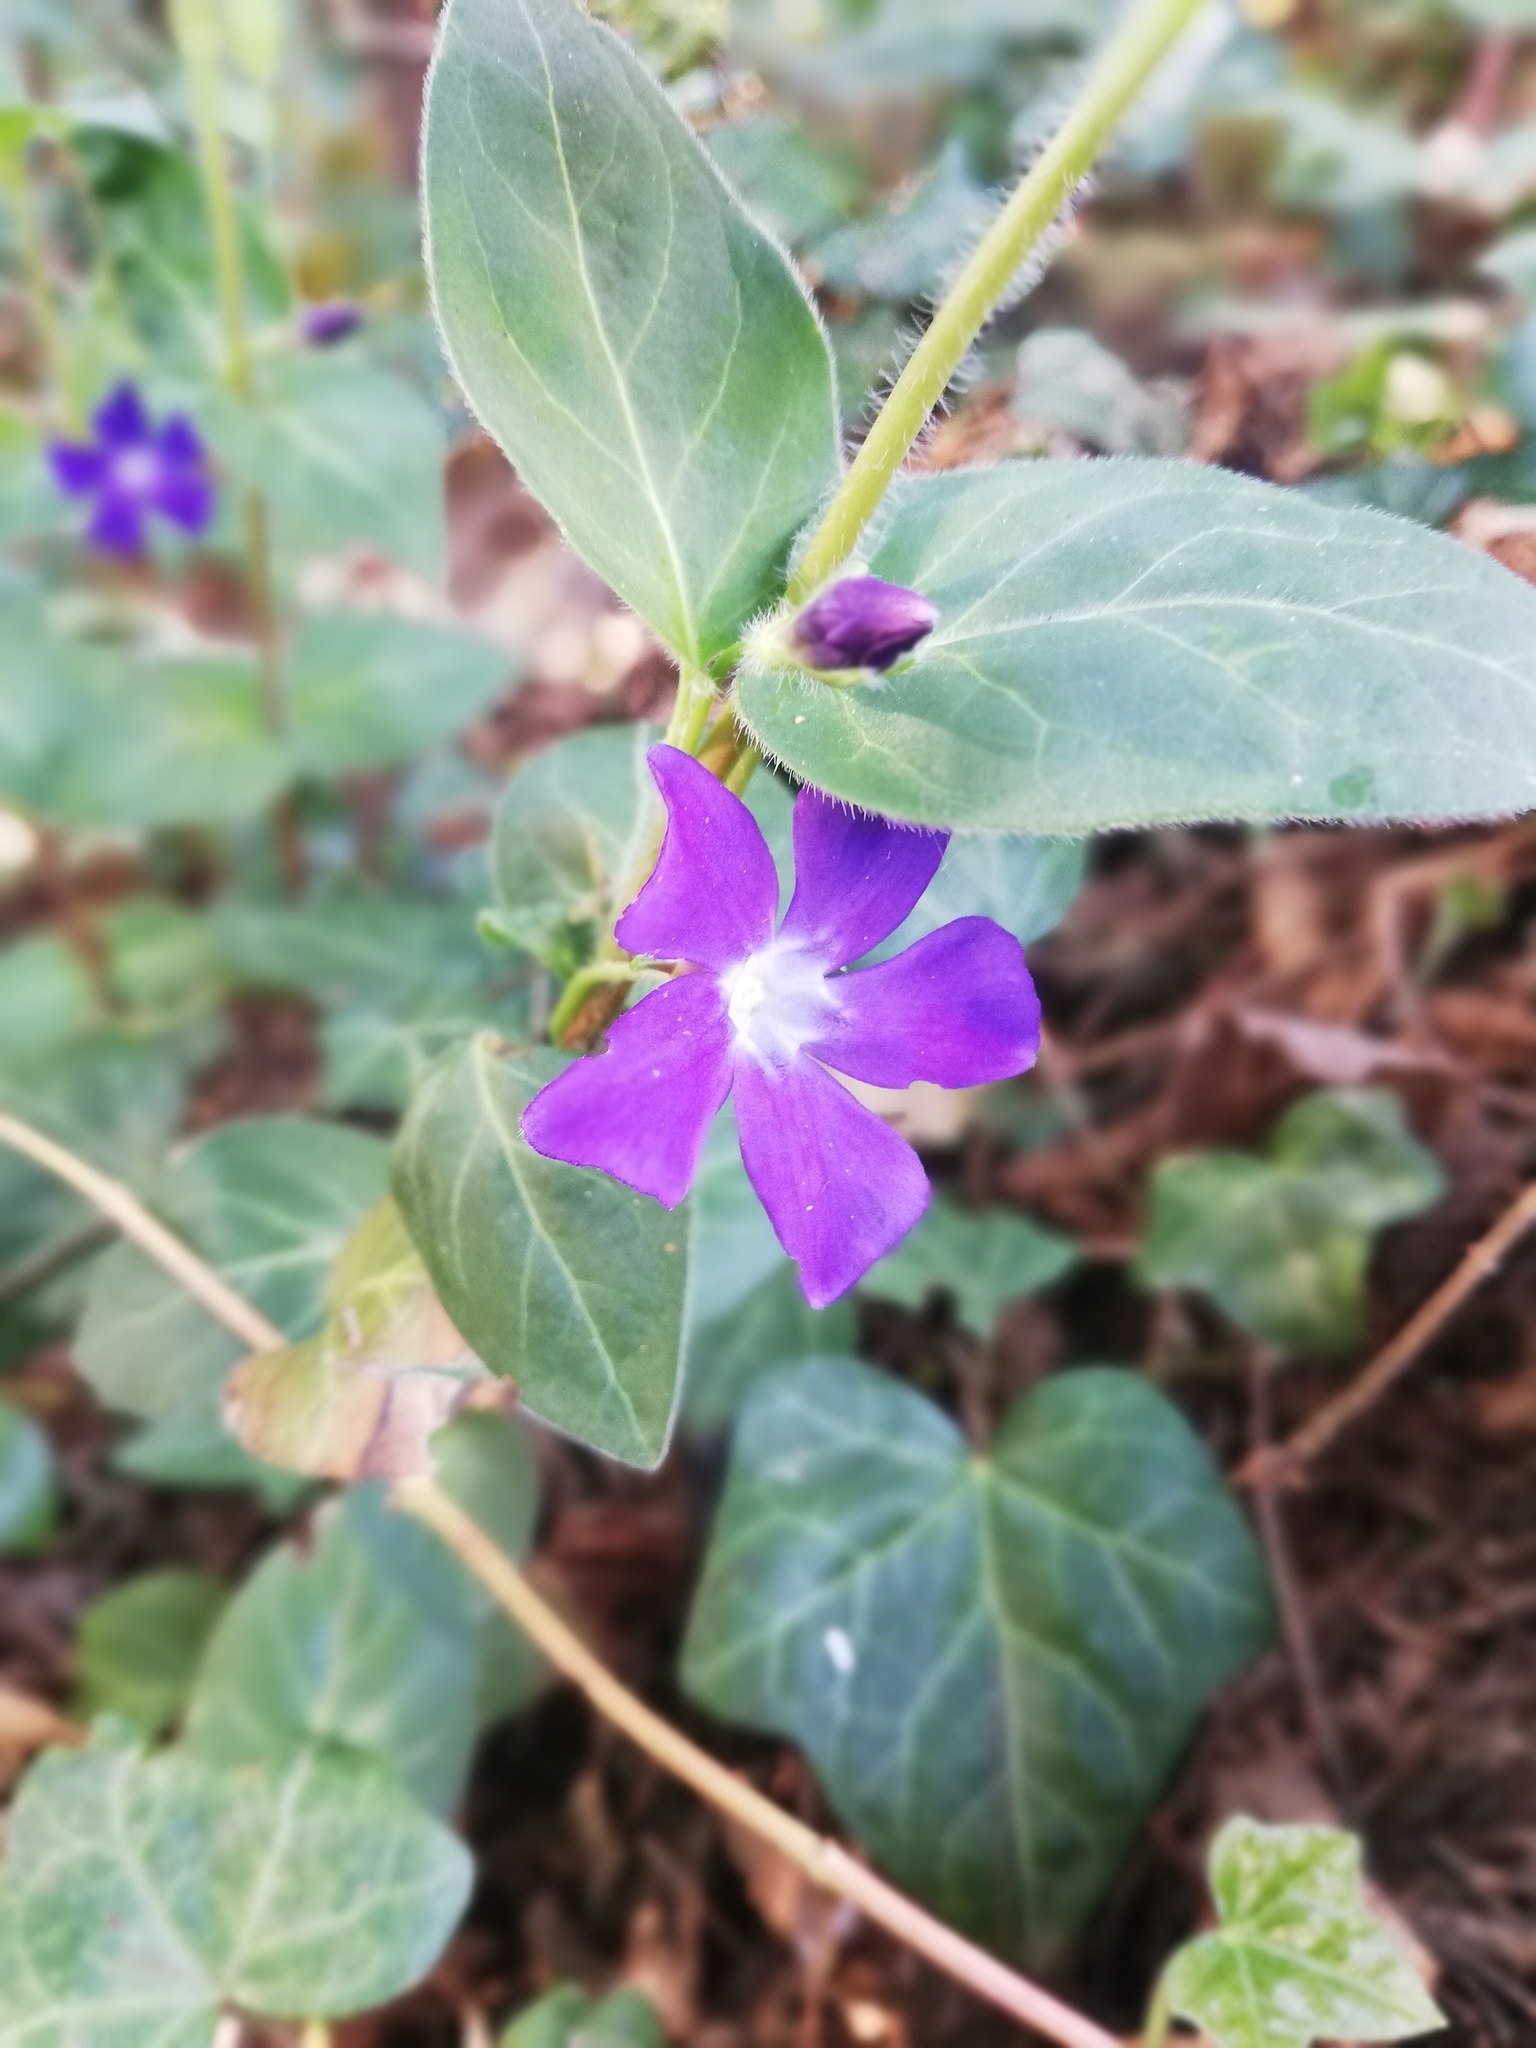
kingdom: Plantae
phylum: Tracheophyta
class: Magnoliopsida
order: Gentianales
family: Apocynaceae
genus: Vinca
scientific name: Vinca major
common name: Greater periwinkle
